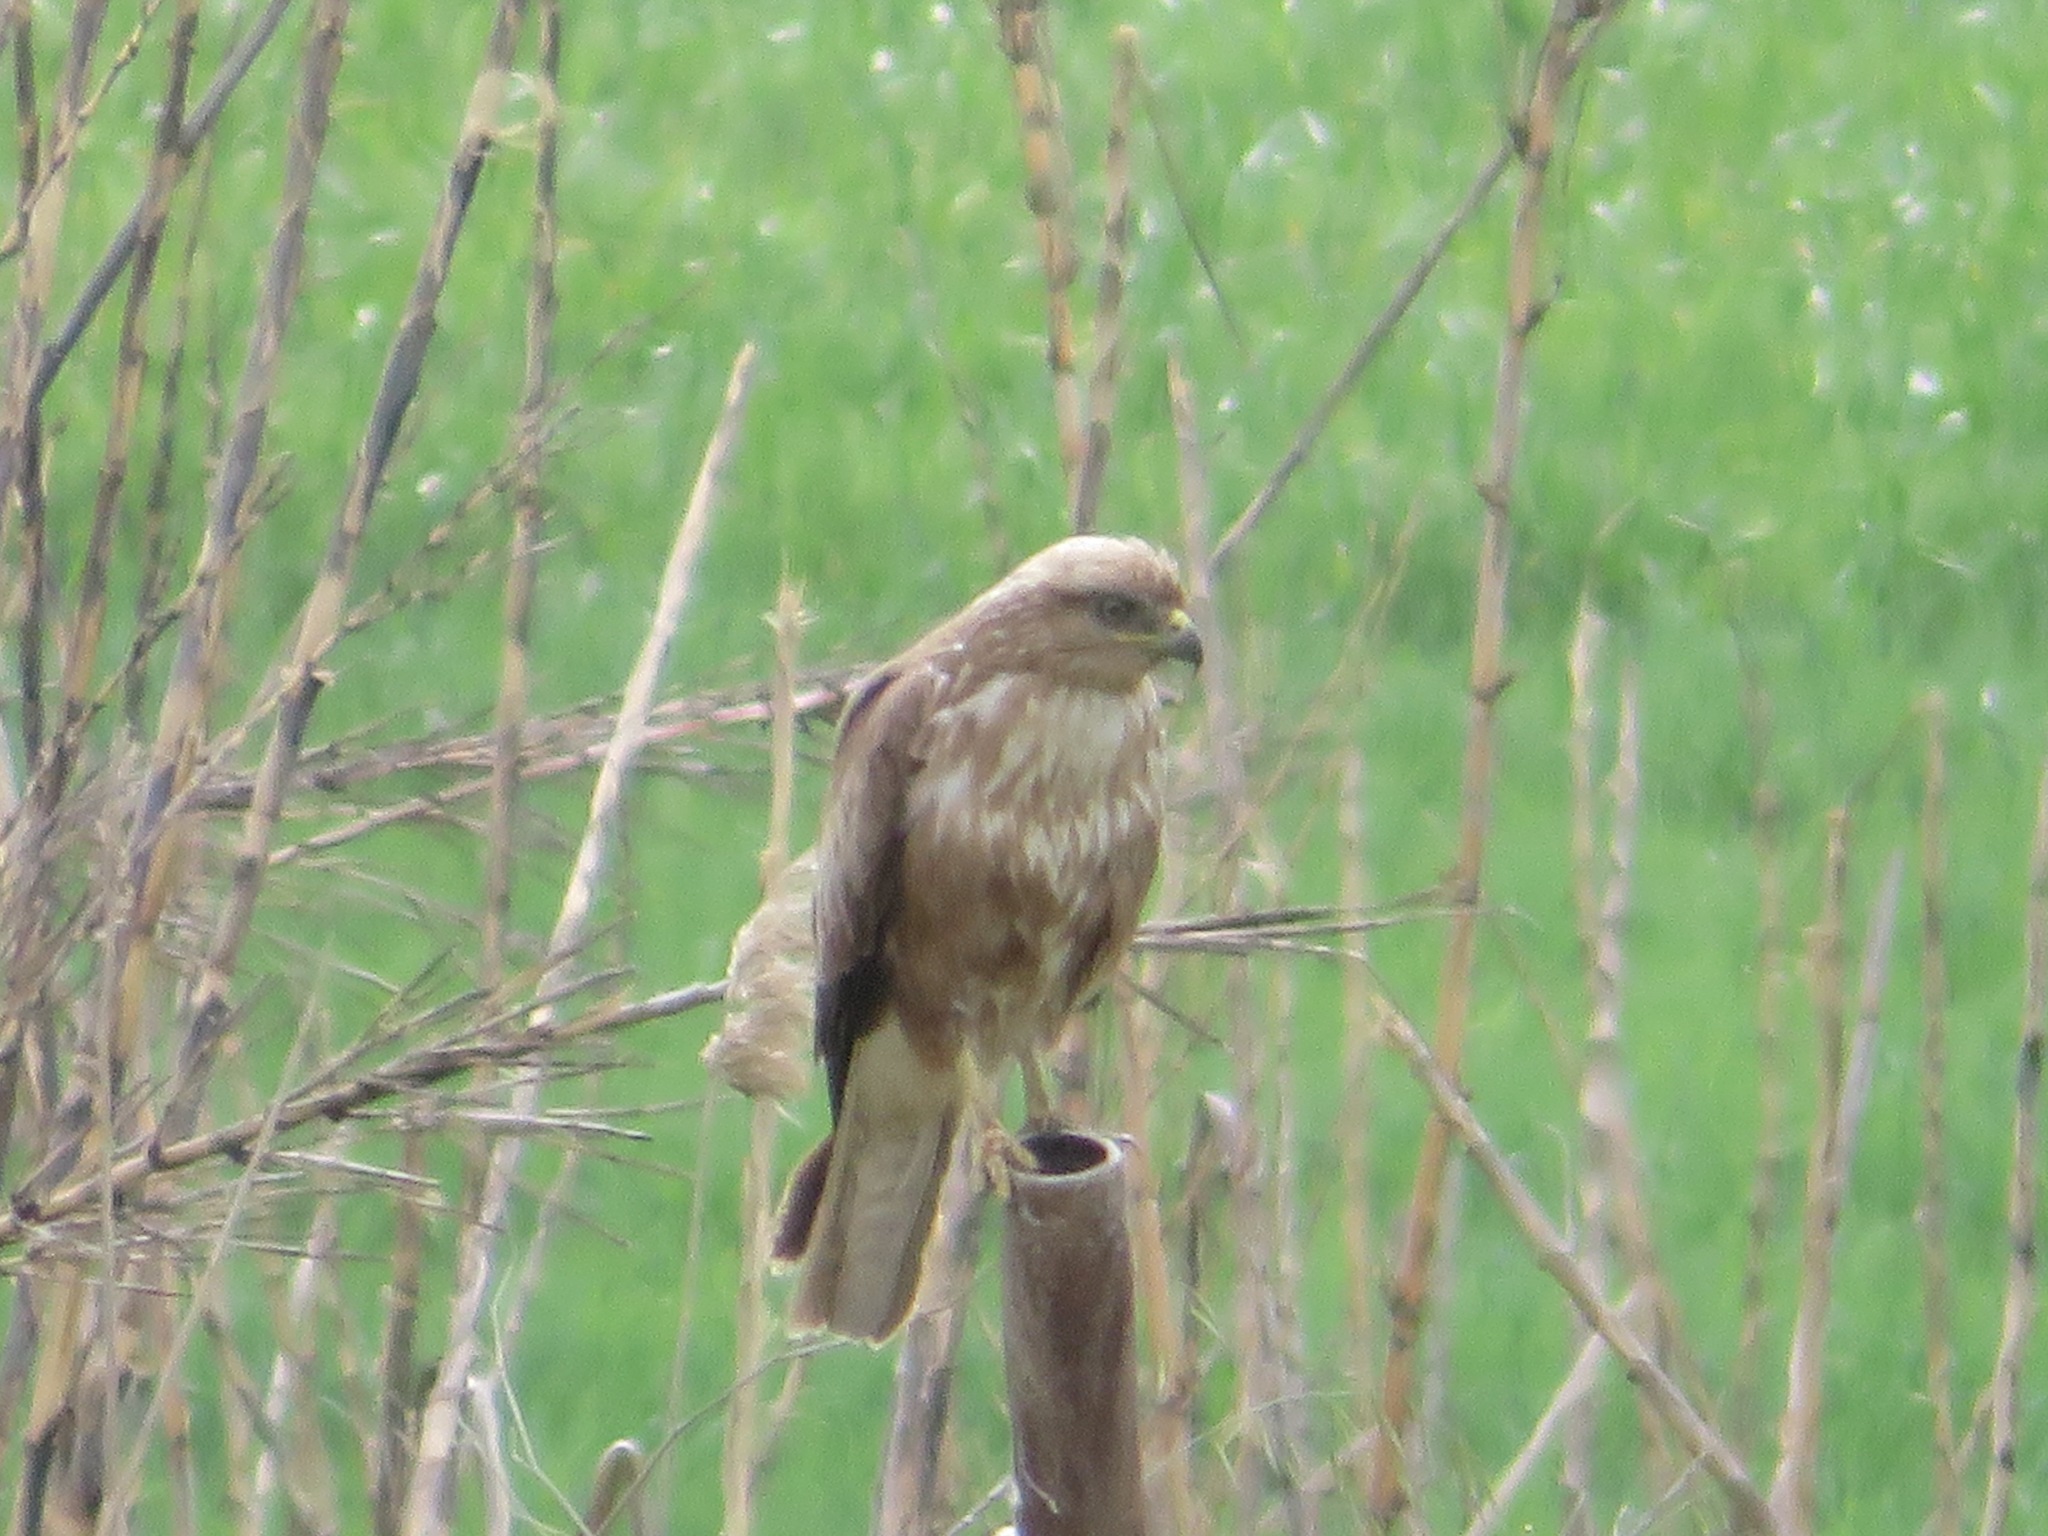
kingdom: Animalia
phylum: Chordata
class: Aves
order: Accipitriformes
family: Accipitridae
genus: Buteo
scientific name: Buteo buteo
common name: Common buzzard
